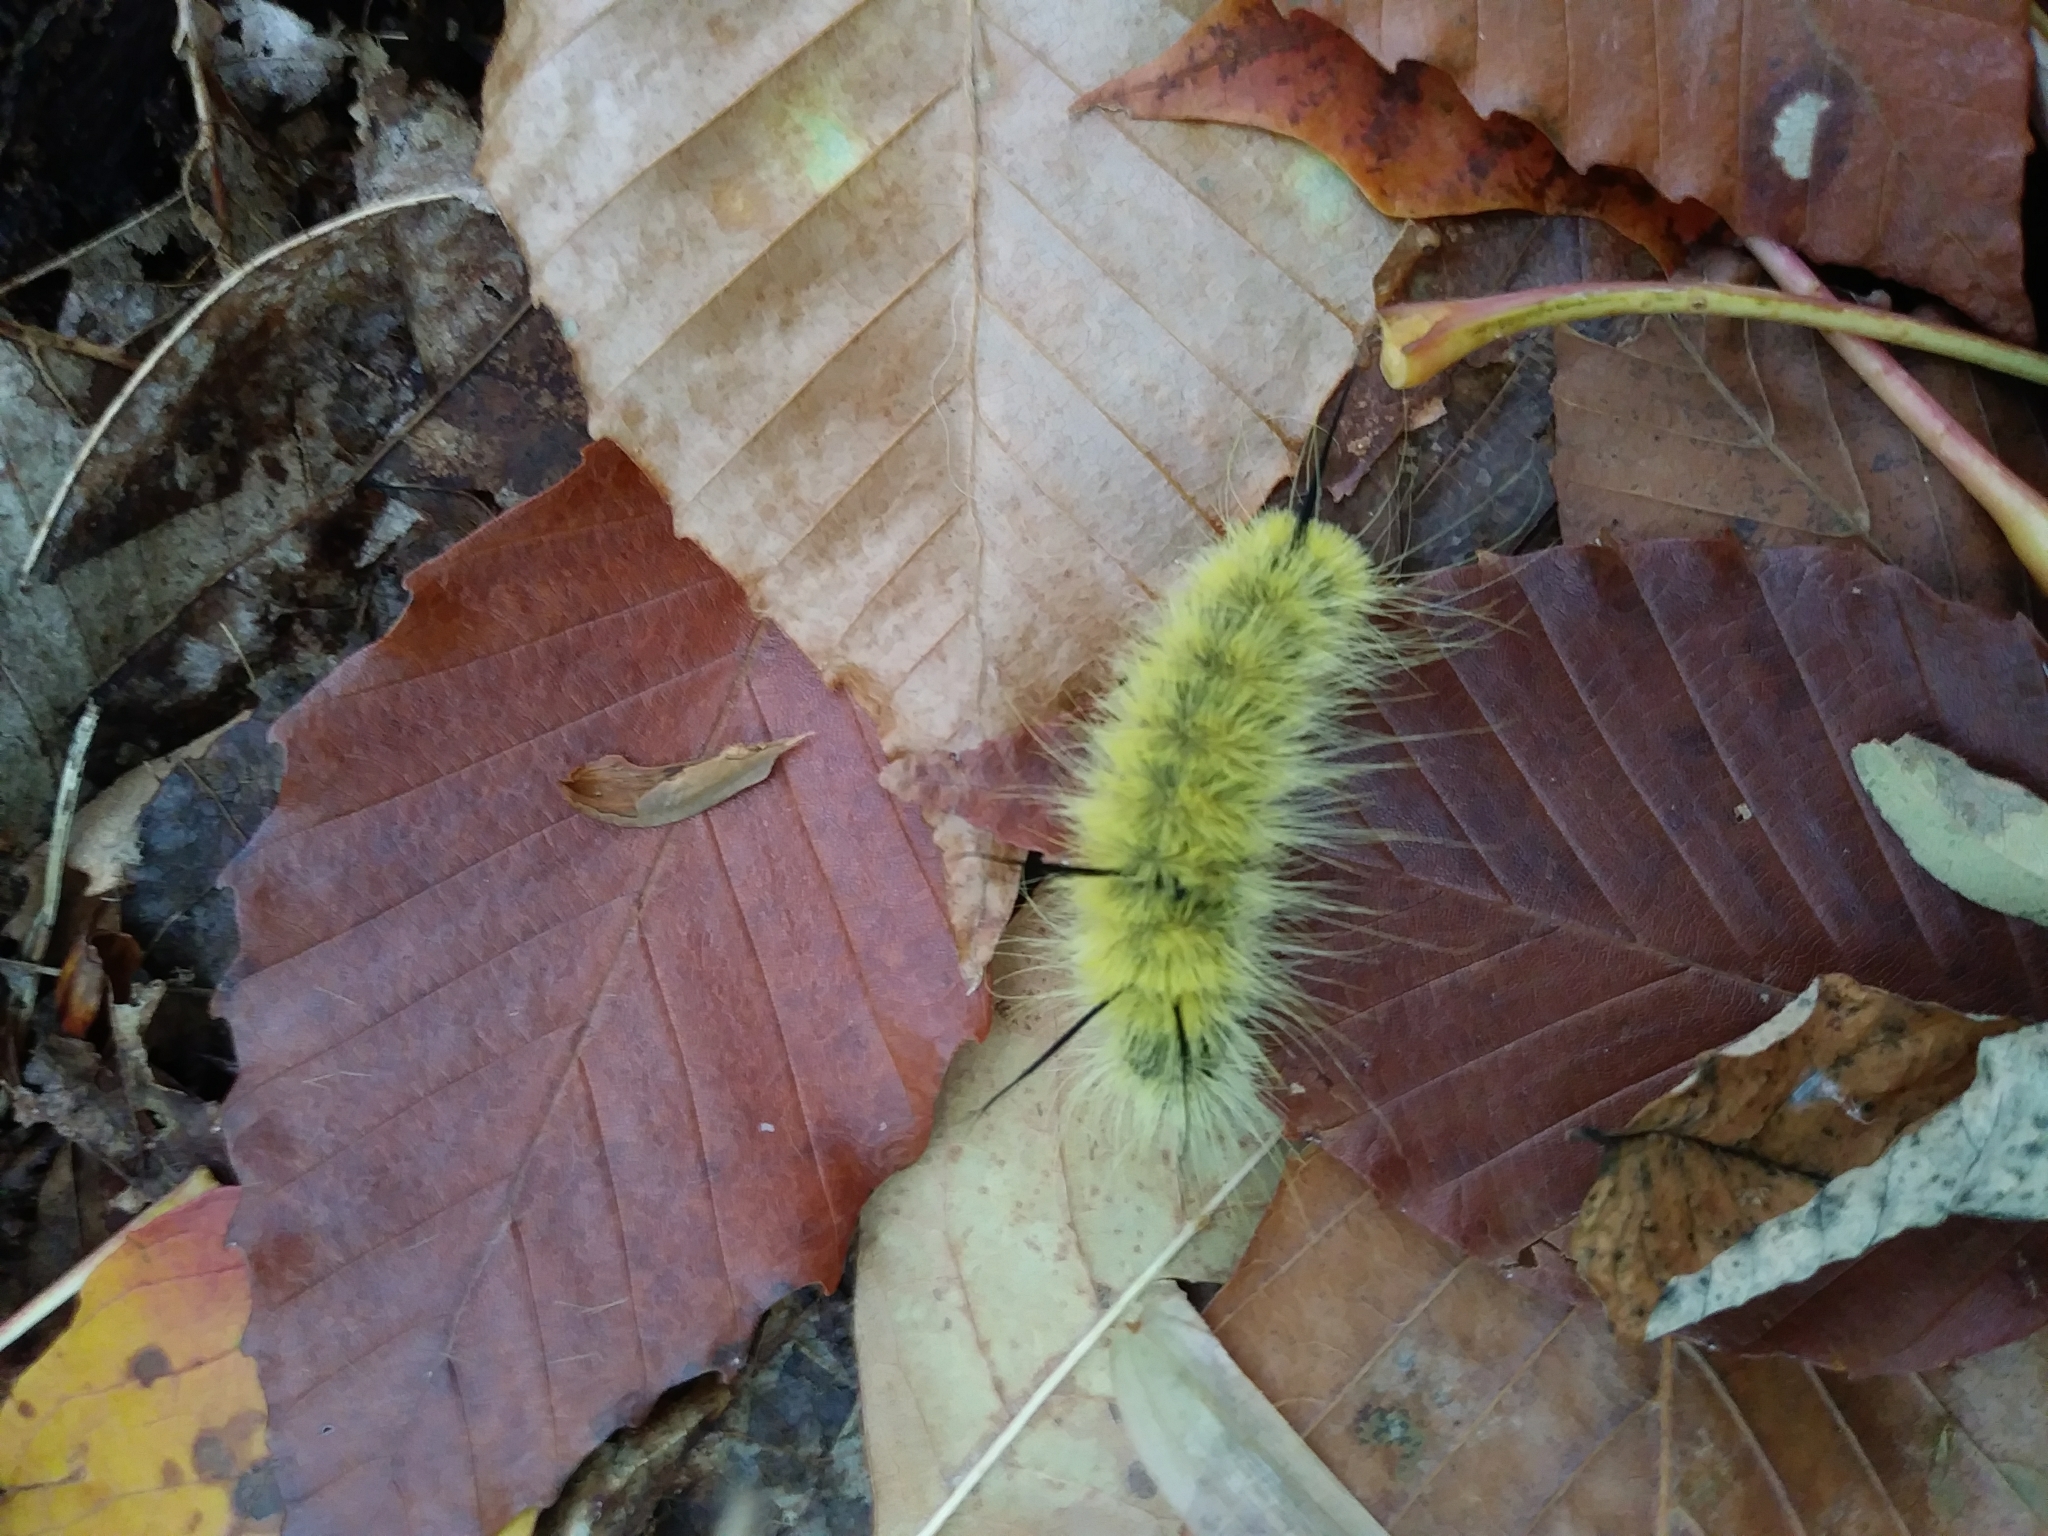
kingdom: Animalia
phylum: Arthropoda
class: Insecta
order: Lepidoptera
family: Noctuidae
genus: Acronicta
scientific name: Acronicta americana
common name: American dagger
